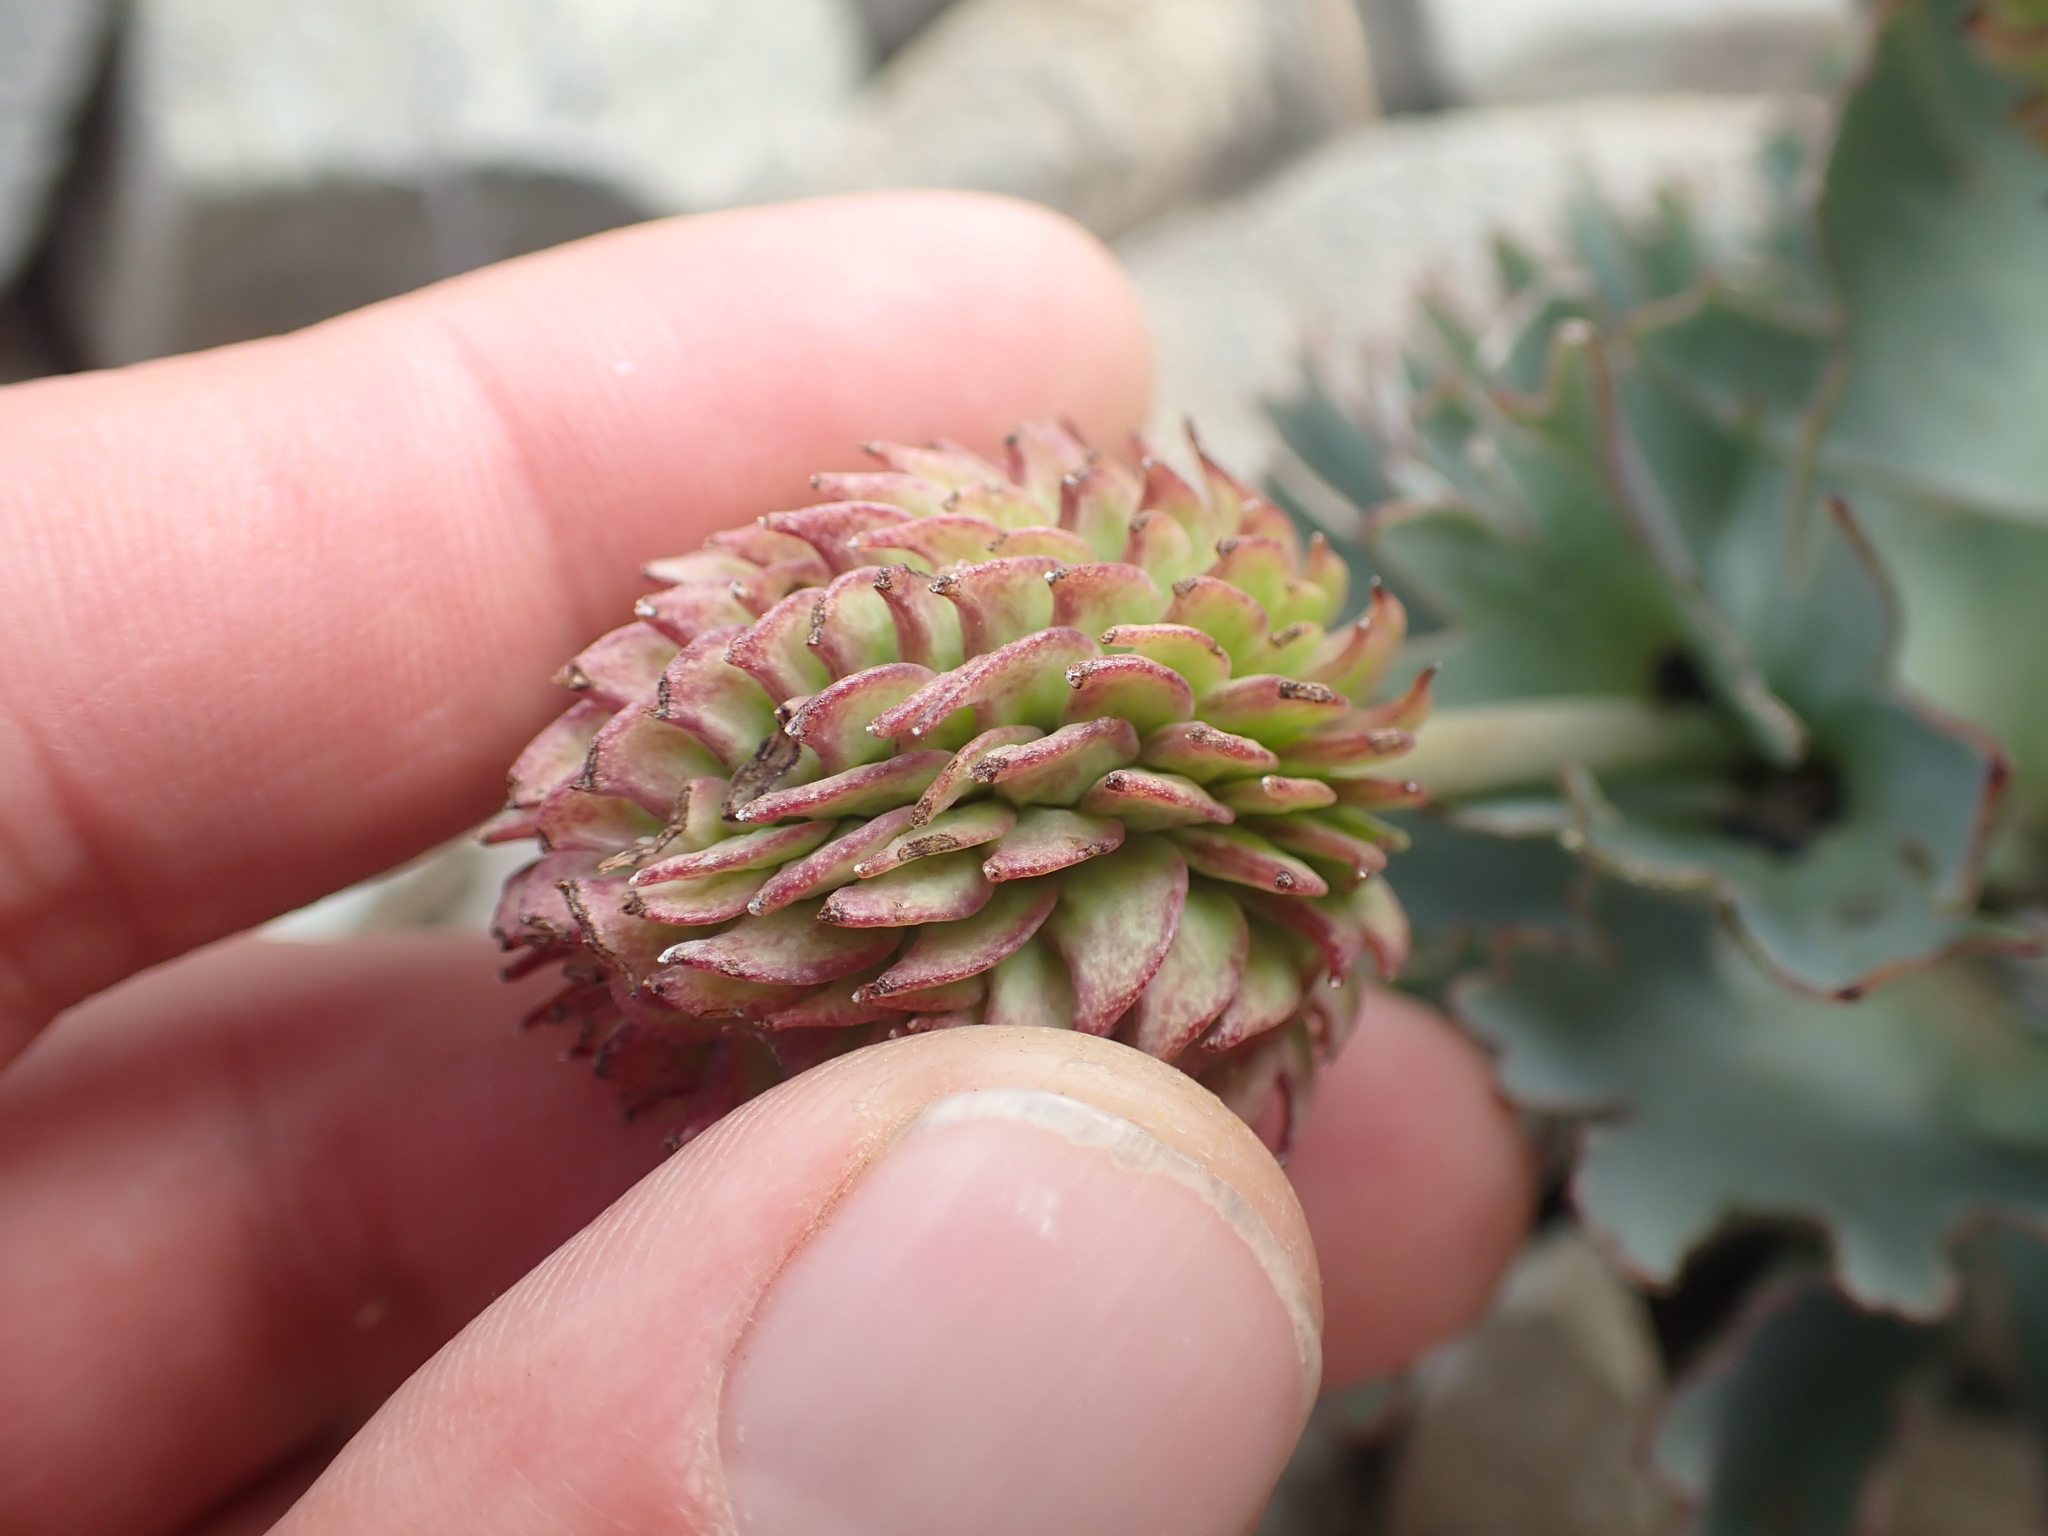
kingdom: Plantae
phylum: Tracheophyta
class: Magnoliopsida
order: Ranunculales
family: Ranunculaceae
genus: Ranunculus
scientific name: Ranunculus haastii
